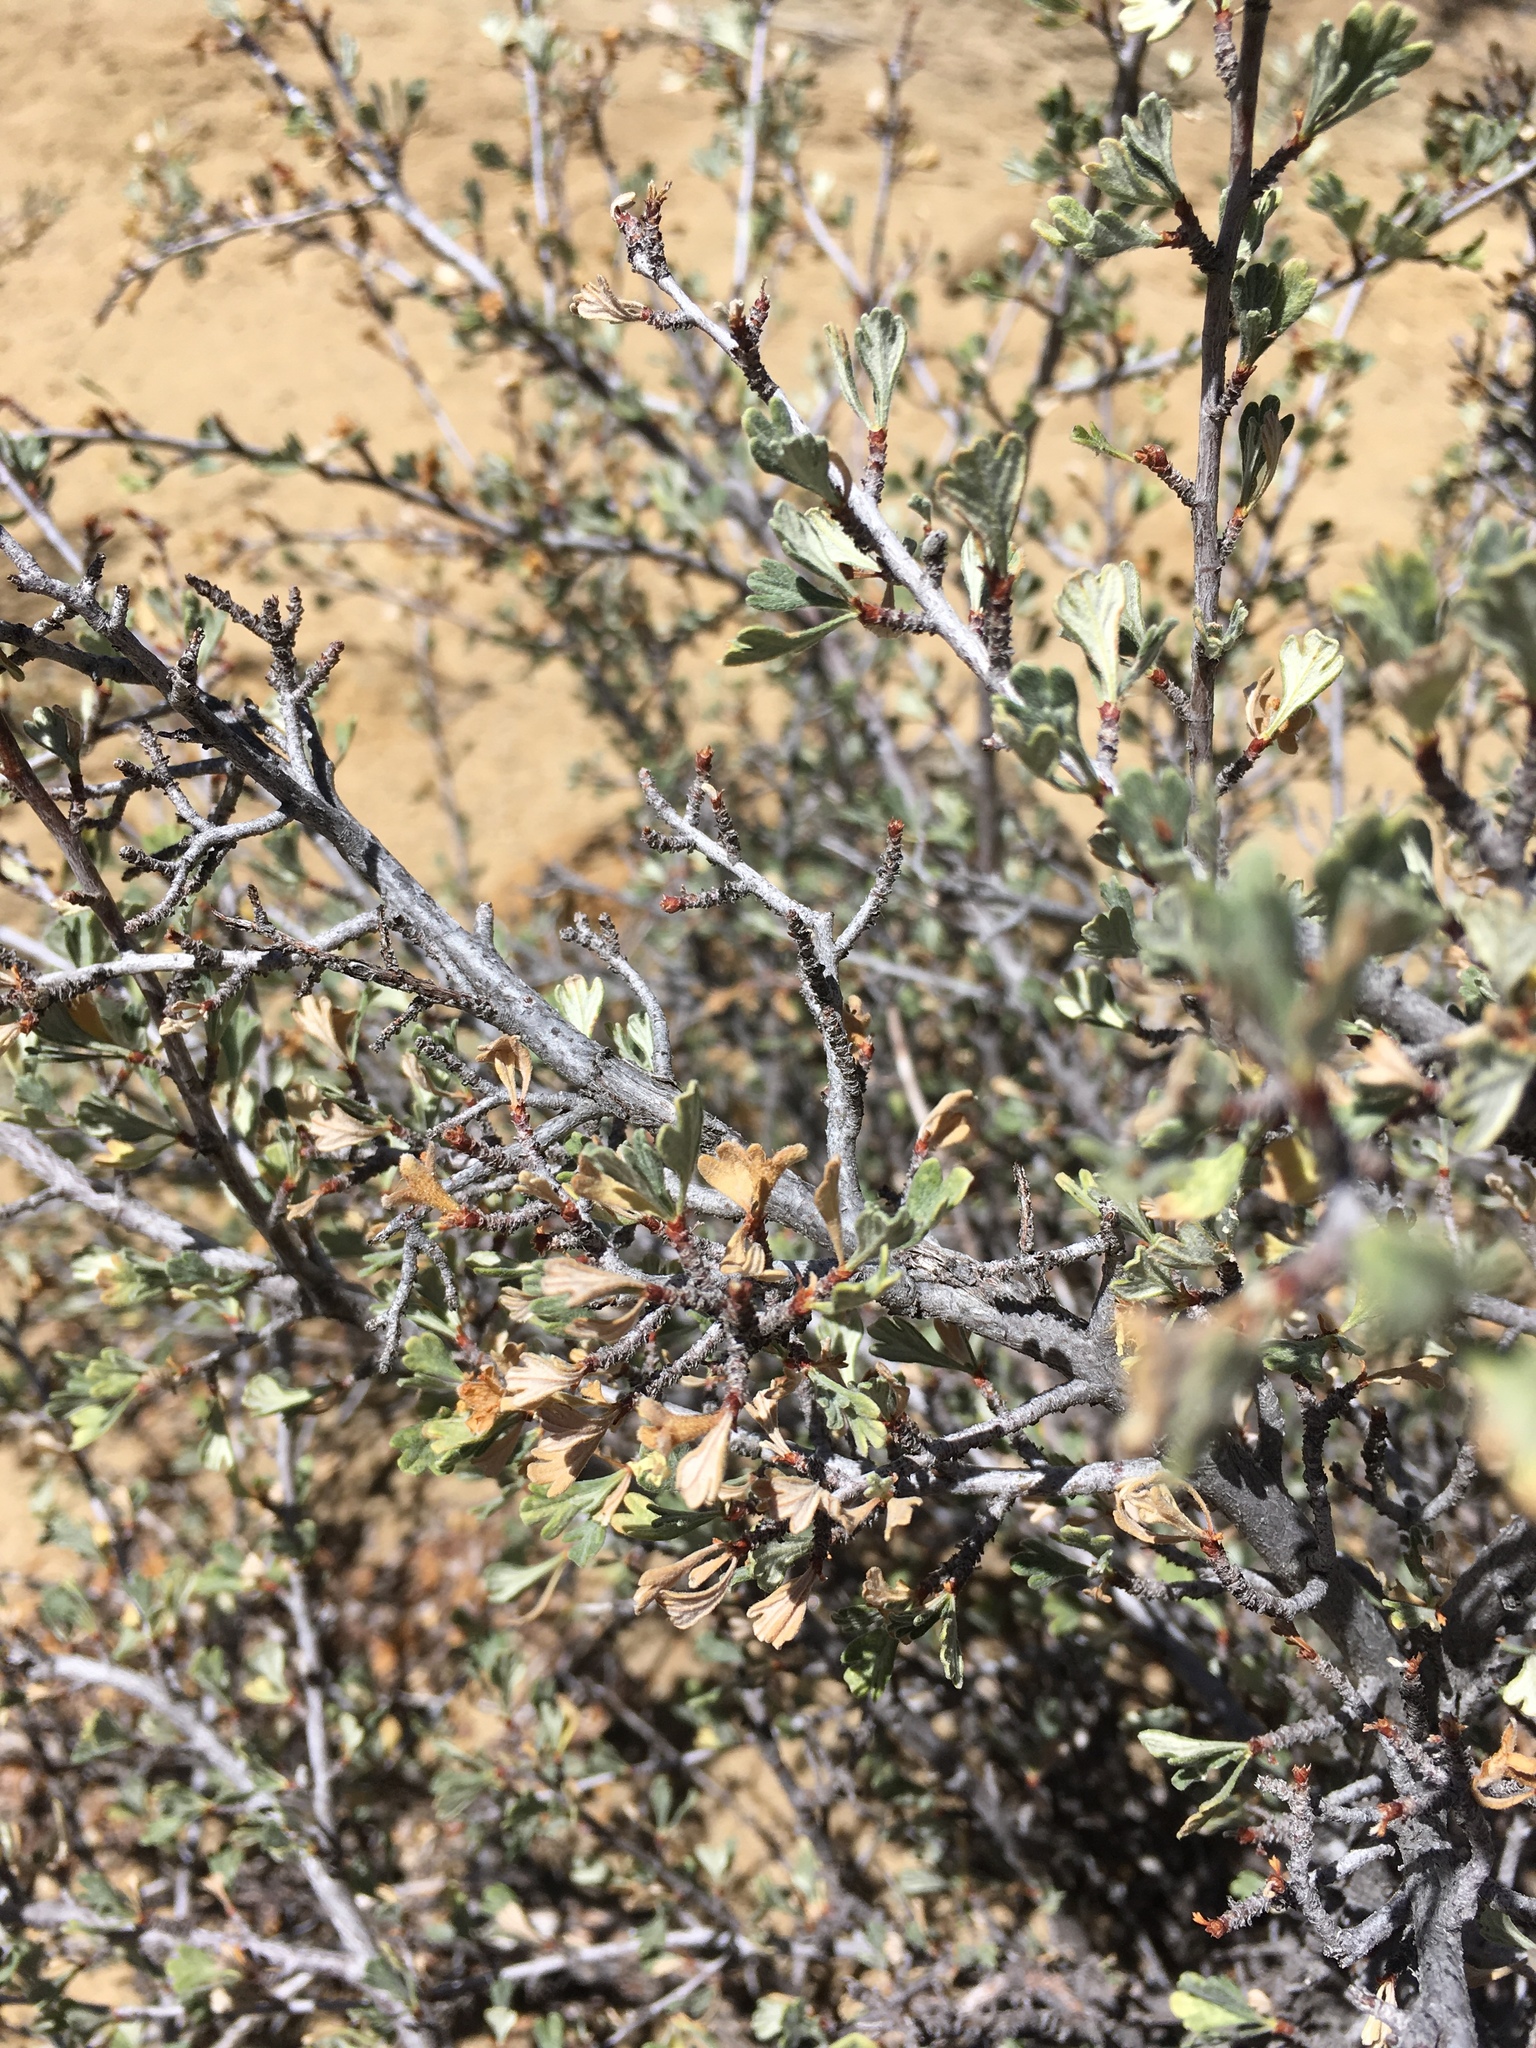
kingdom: Plantae
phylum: Tracheophyta
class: Magnoliopsida
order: Rosales
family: Rosaceae
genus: Purshia
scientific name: Purshia tridentata
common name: Antelope bitterbrush
